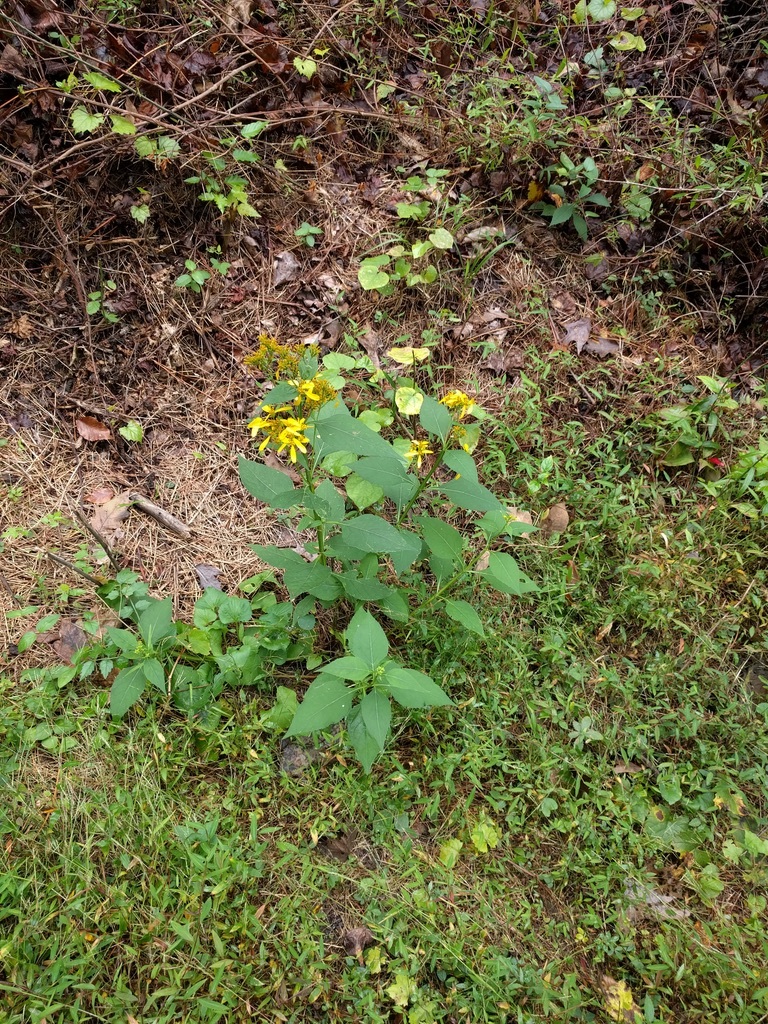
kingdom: Plantae
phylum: Tracheophyta
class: Magnoliopsida
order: Asterales
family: Asteraceae
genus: Verbesina
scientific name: Verbesina occidentalis
